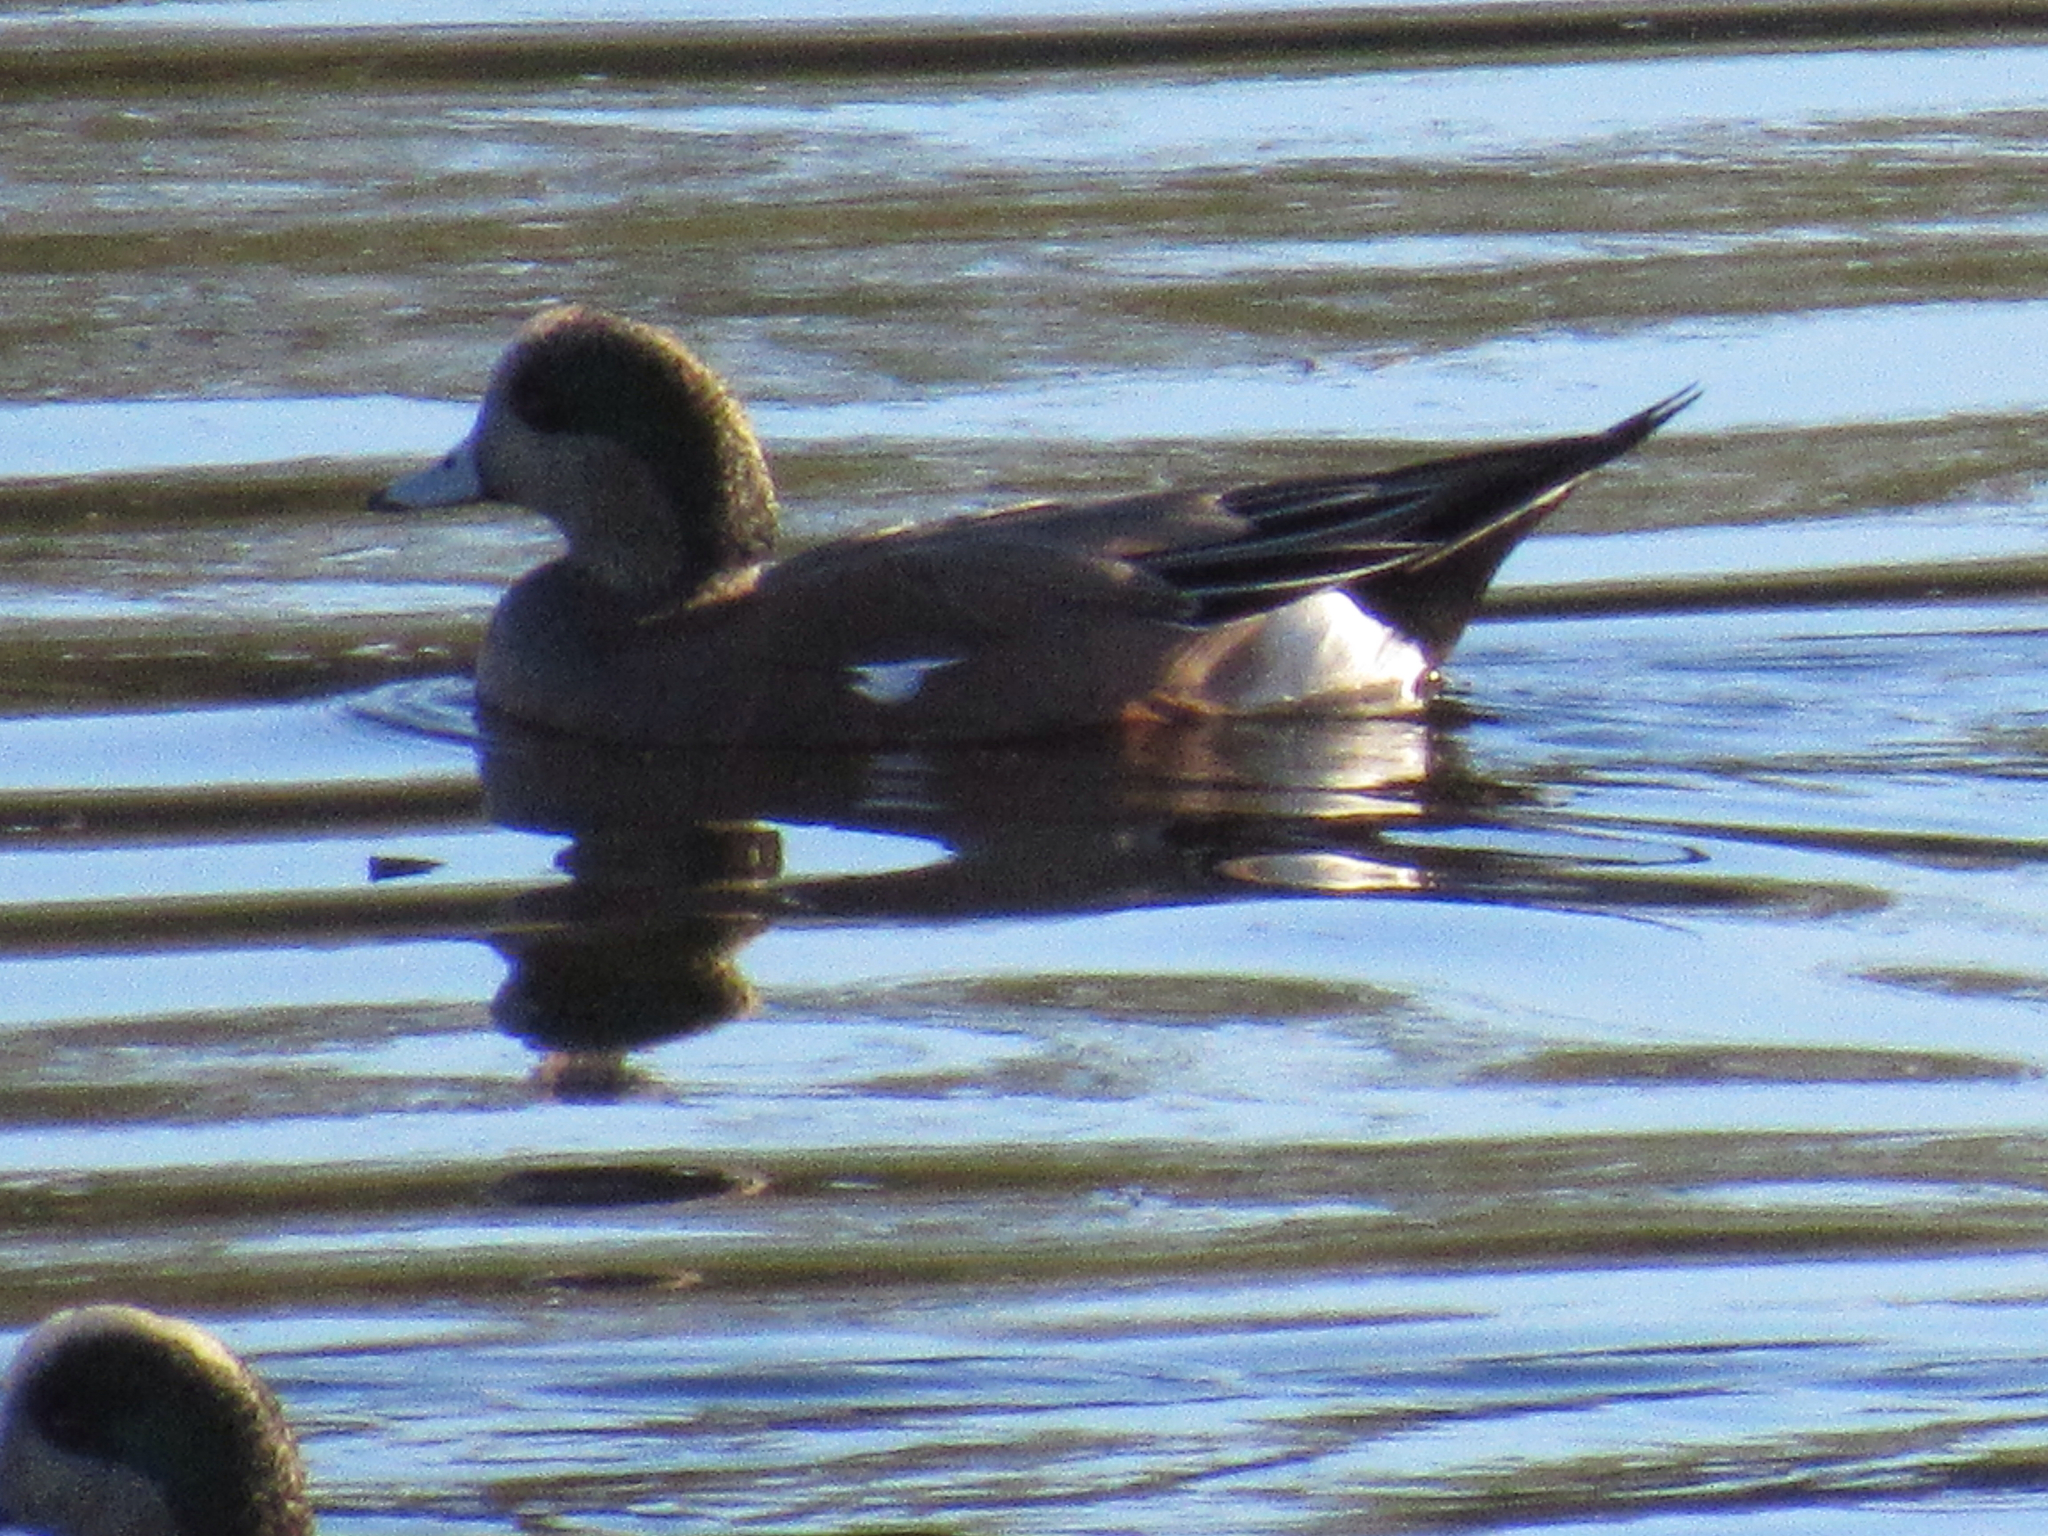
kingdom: Animalia
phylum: Chordata
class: Aves
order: Anseriformes
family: Anatidae
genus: Mareca
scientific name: Mareca americana
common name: American wigeon
